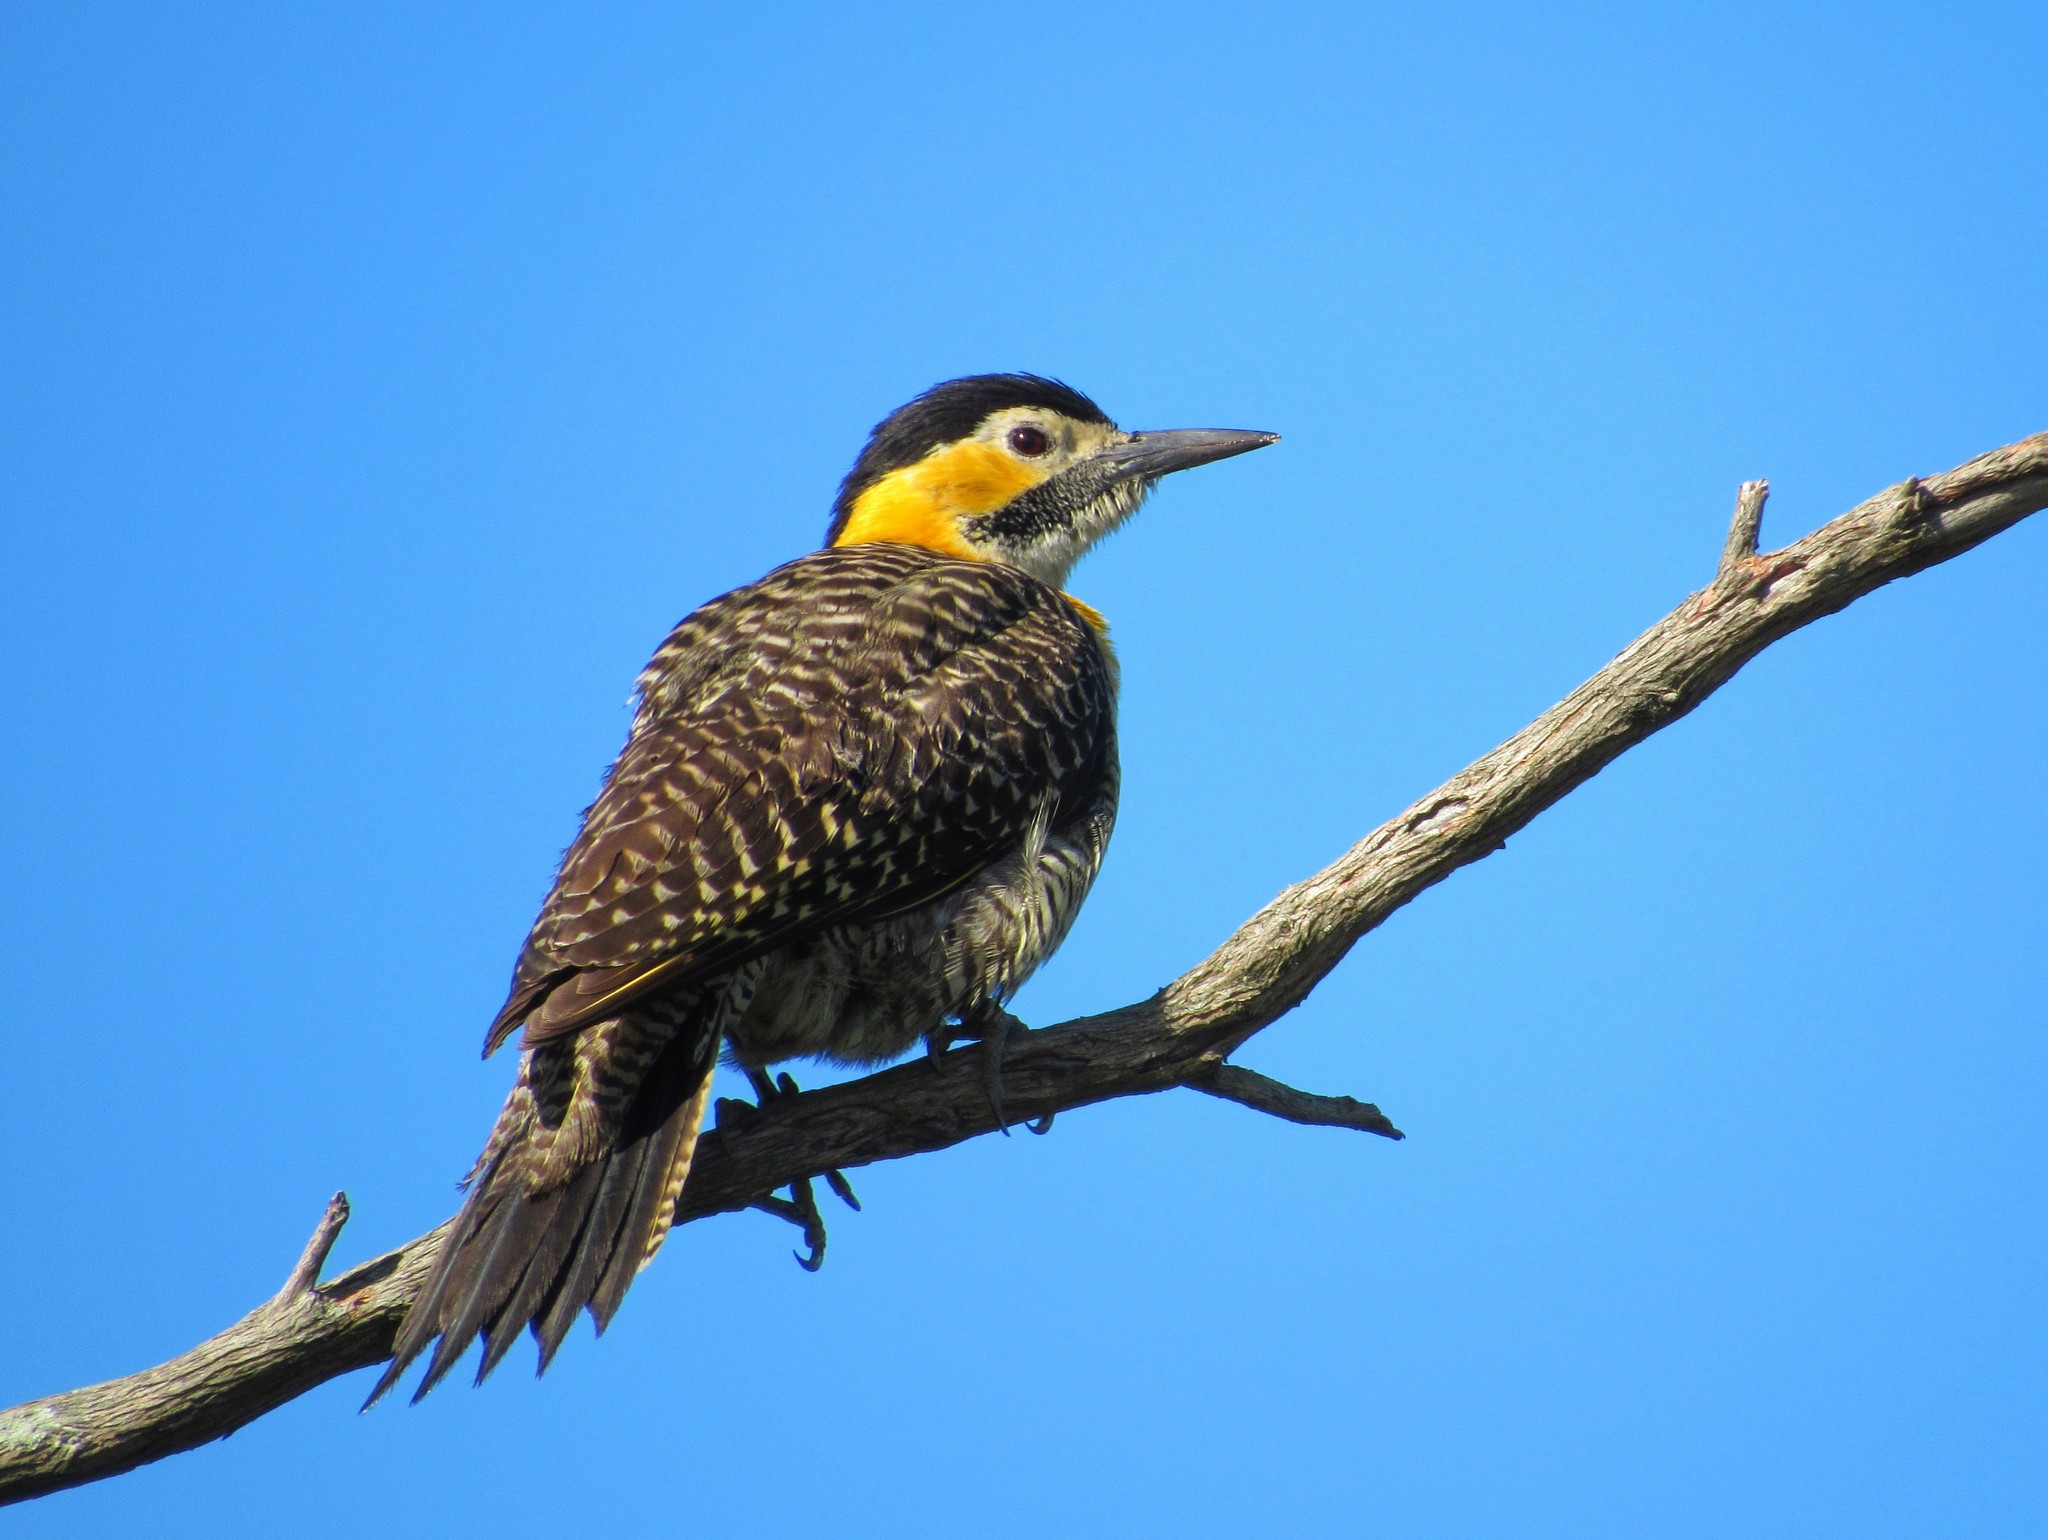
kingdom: Animalia
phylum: Chordata
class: Aves
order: Piciformes
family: Picidae
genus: Colaptes
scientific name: Colaptes campestris
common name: Campo flicker
